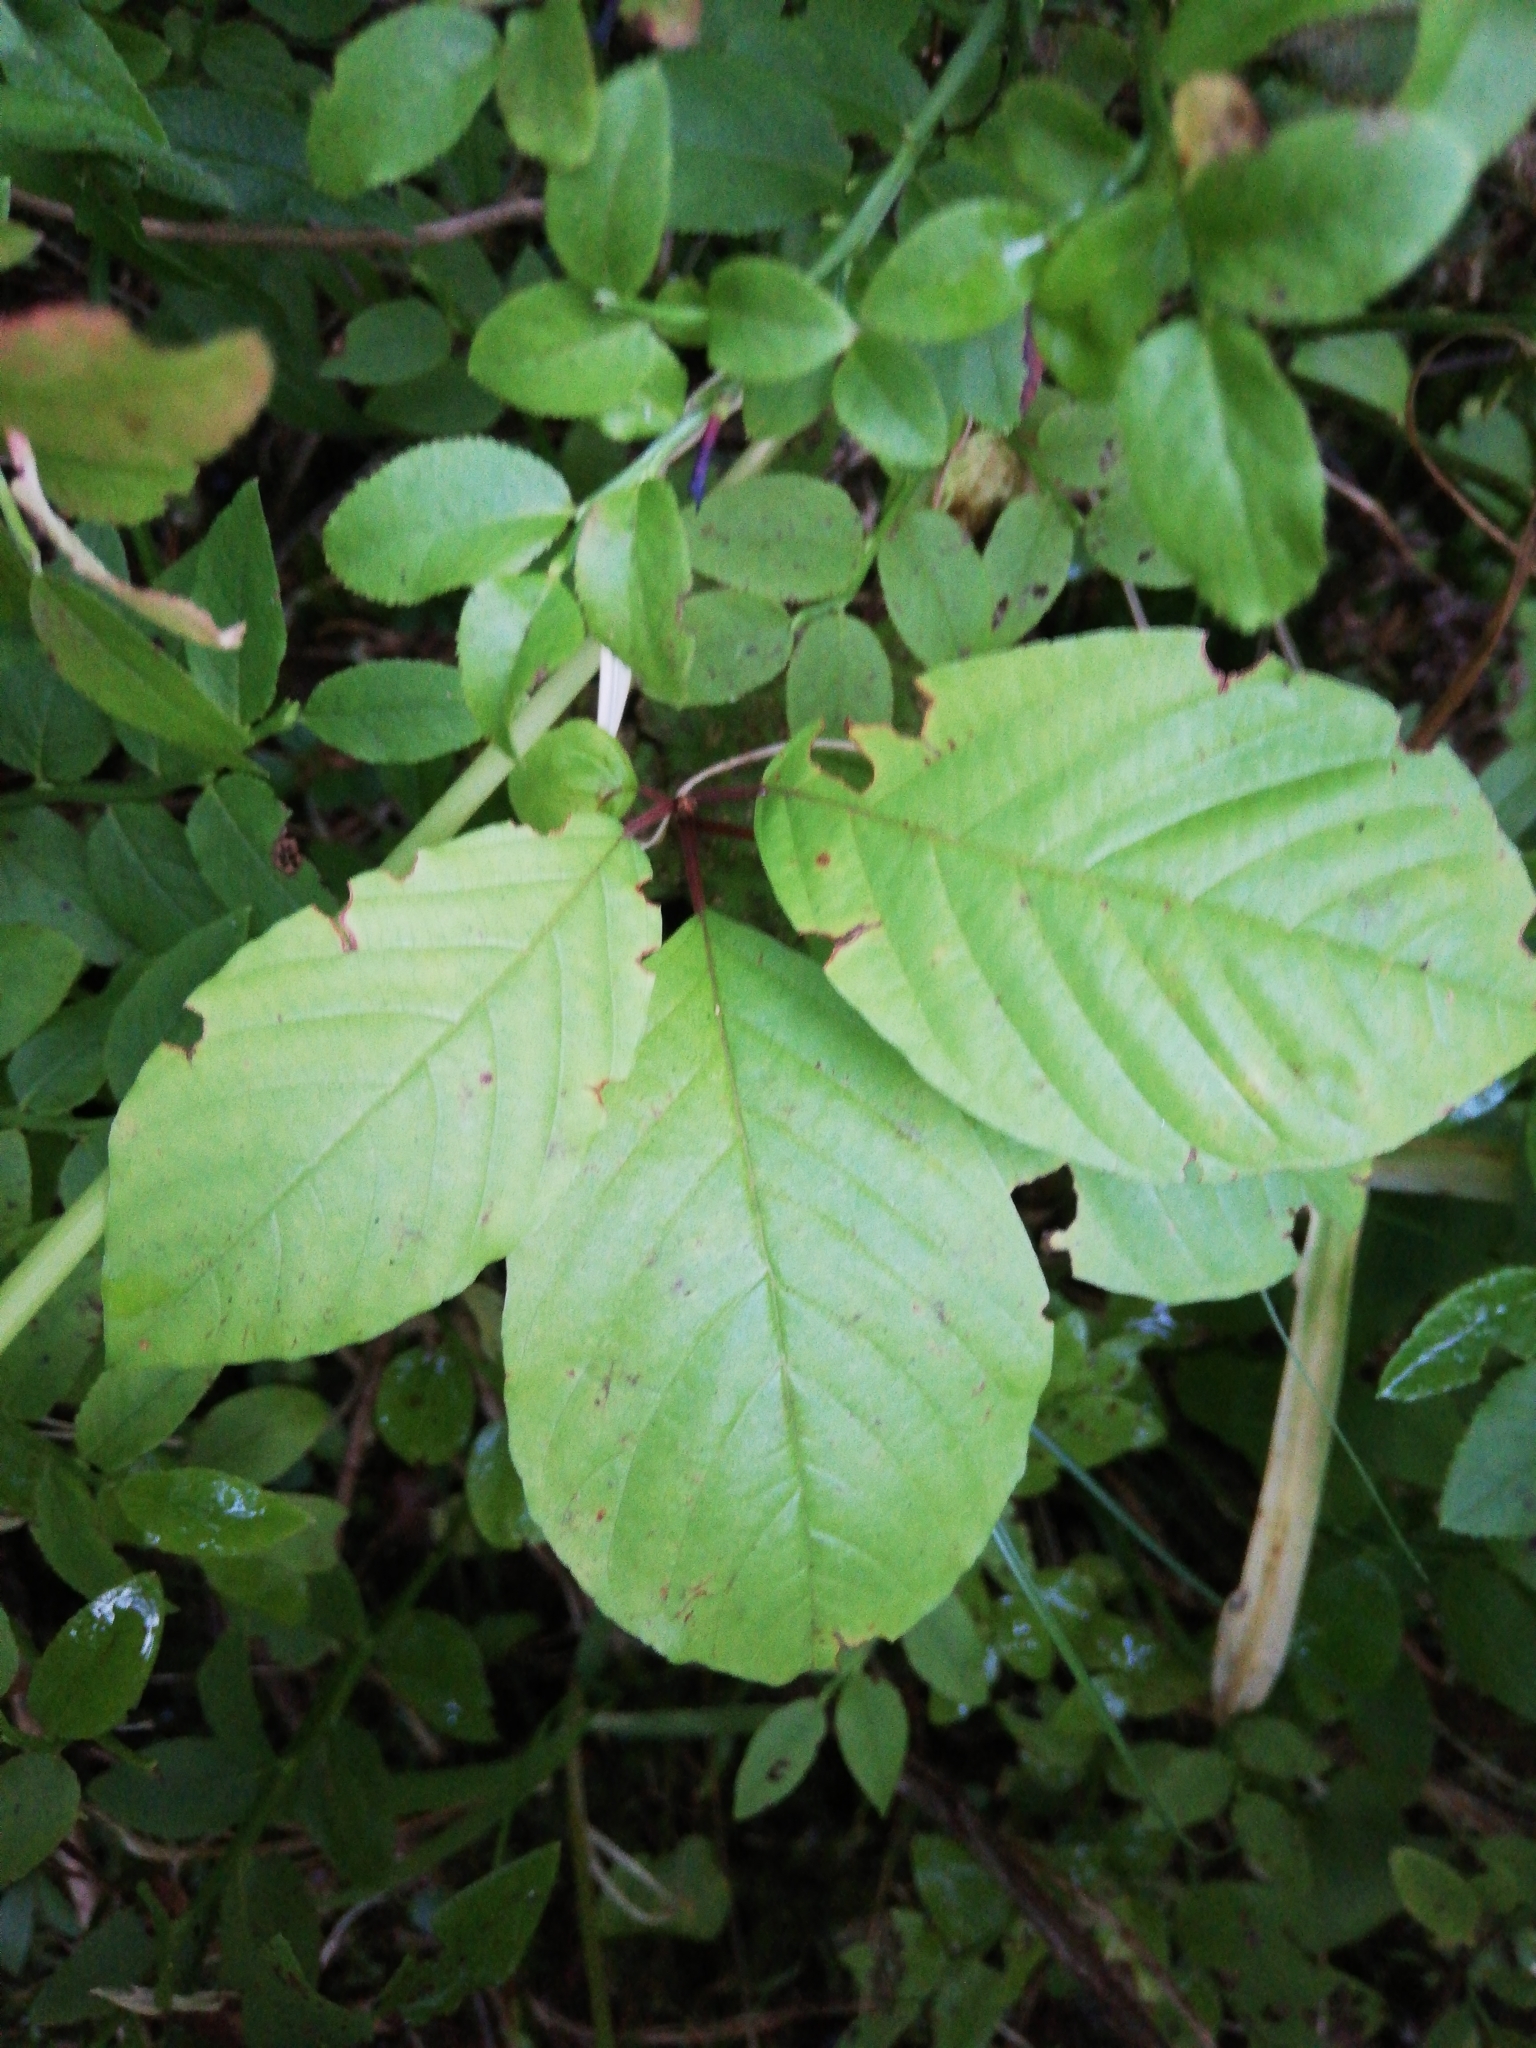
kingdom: Plantae
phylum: Tracheophyta
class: Magnoliopsida
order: Rosales
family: Rhamnaceae
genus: Frangula
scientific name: Frangula alnus
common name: Alder buckthorn
